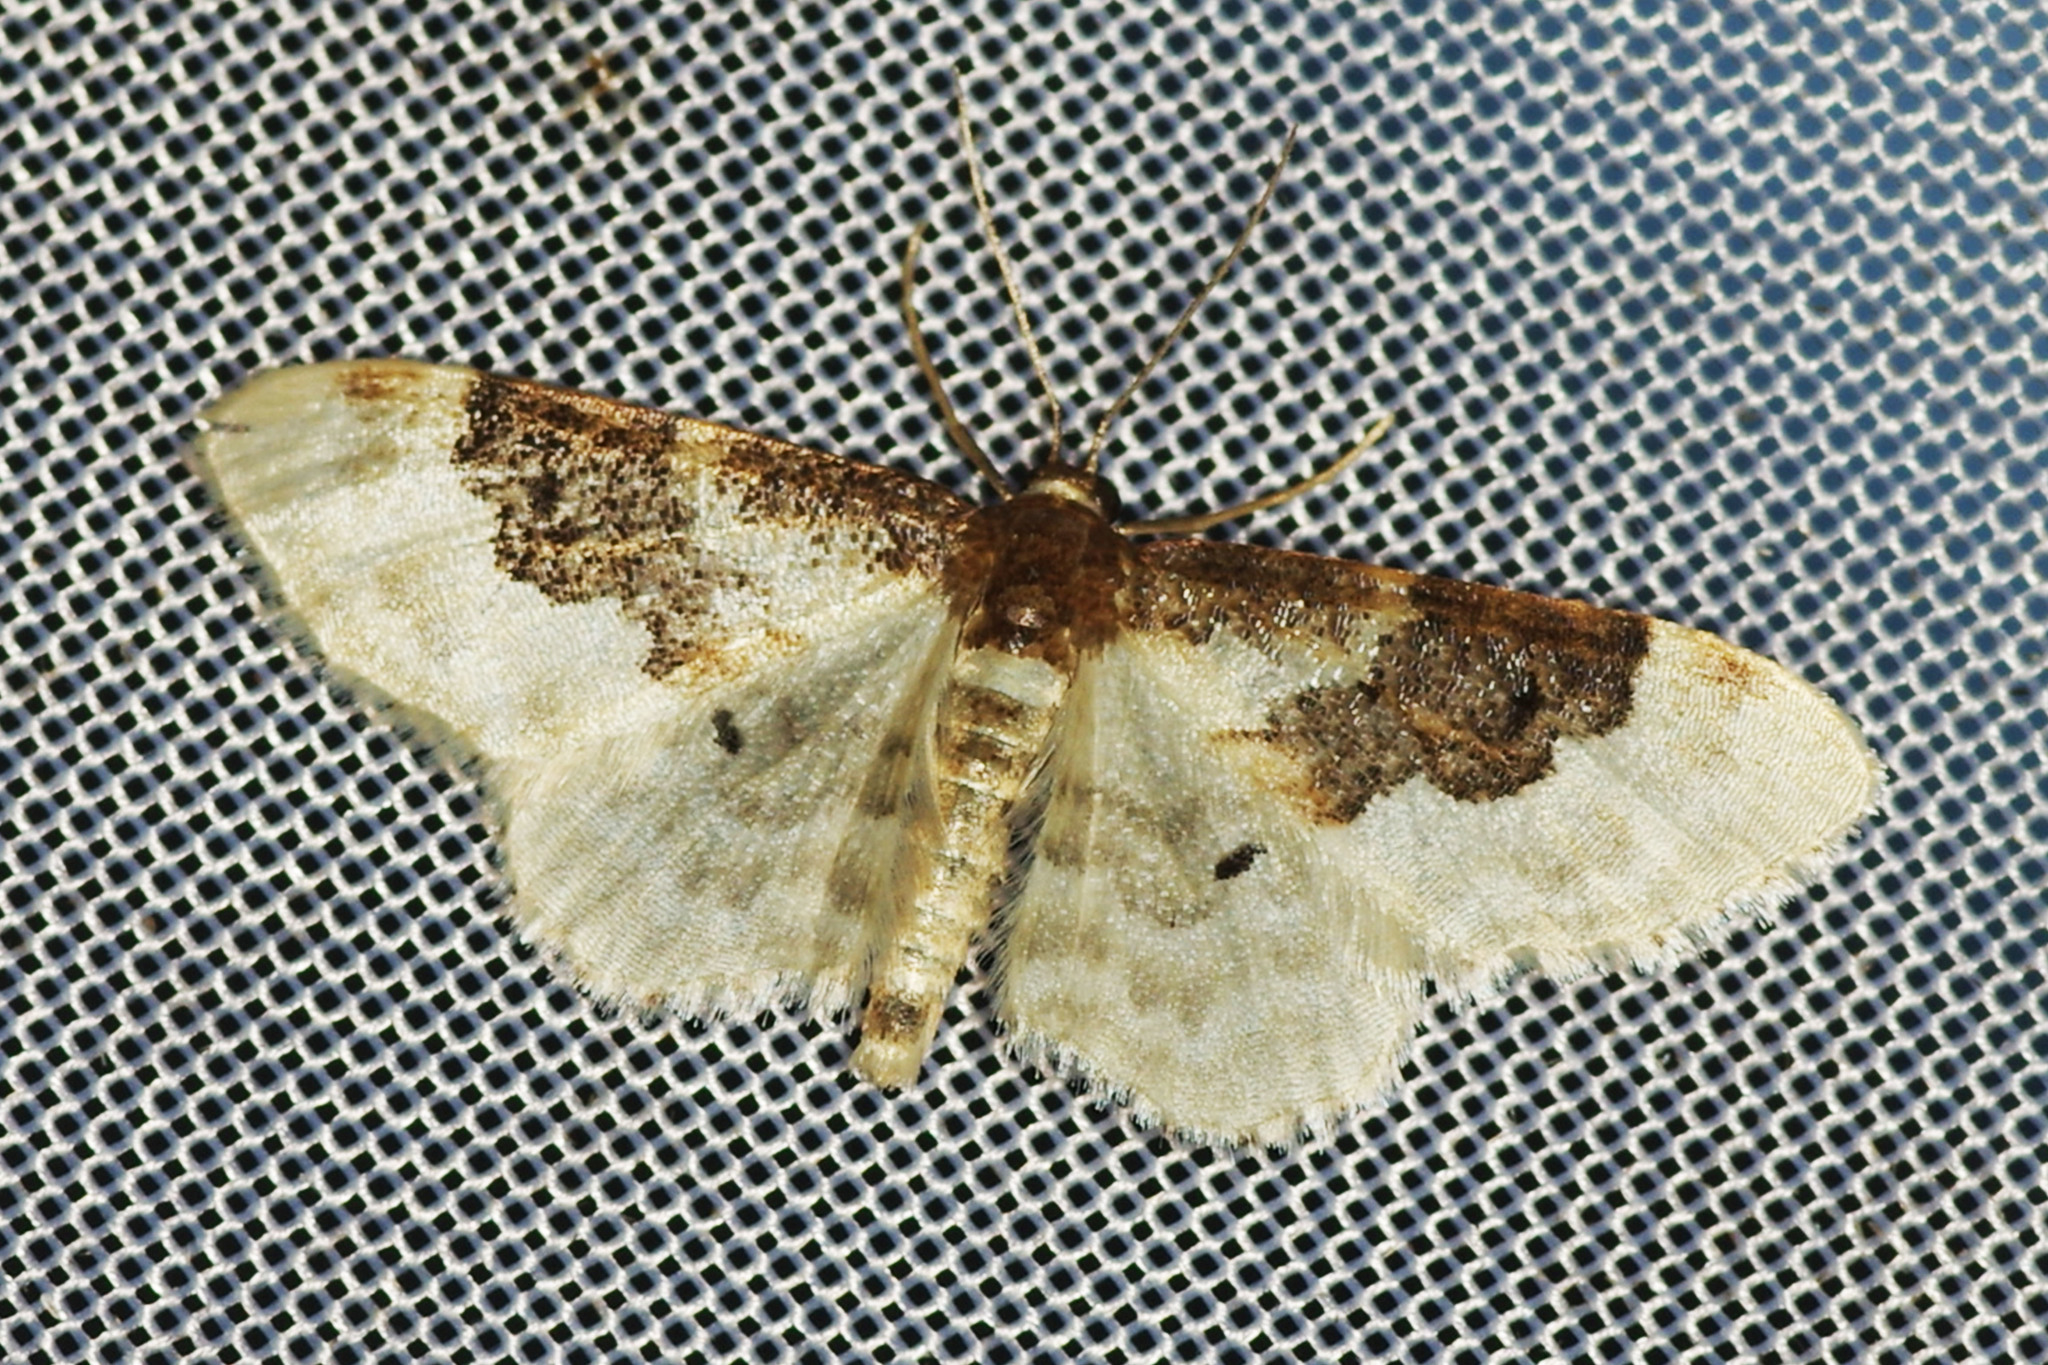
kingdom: Animalia
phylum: Arthropoda
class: Insecta
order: Lepidoptera
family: Geometridae
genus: Idaea
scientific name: Idaea rusticata
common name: Least carpet
